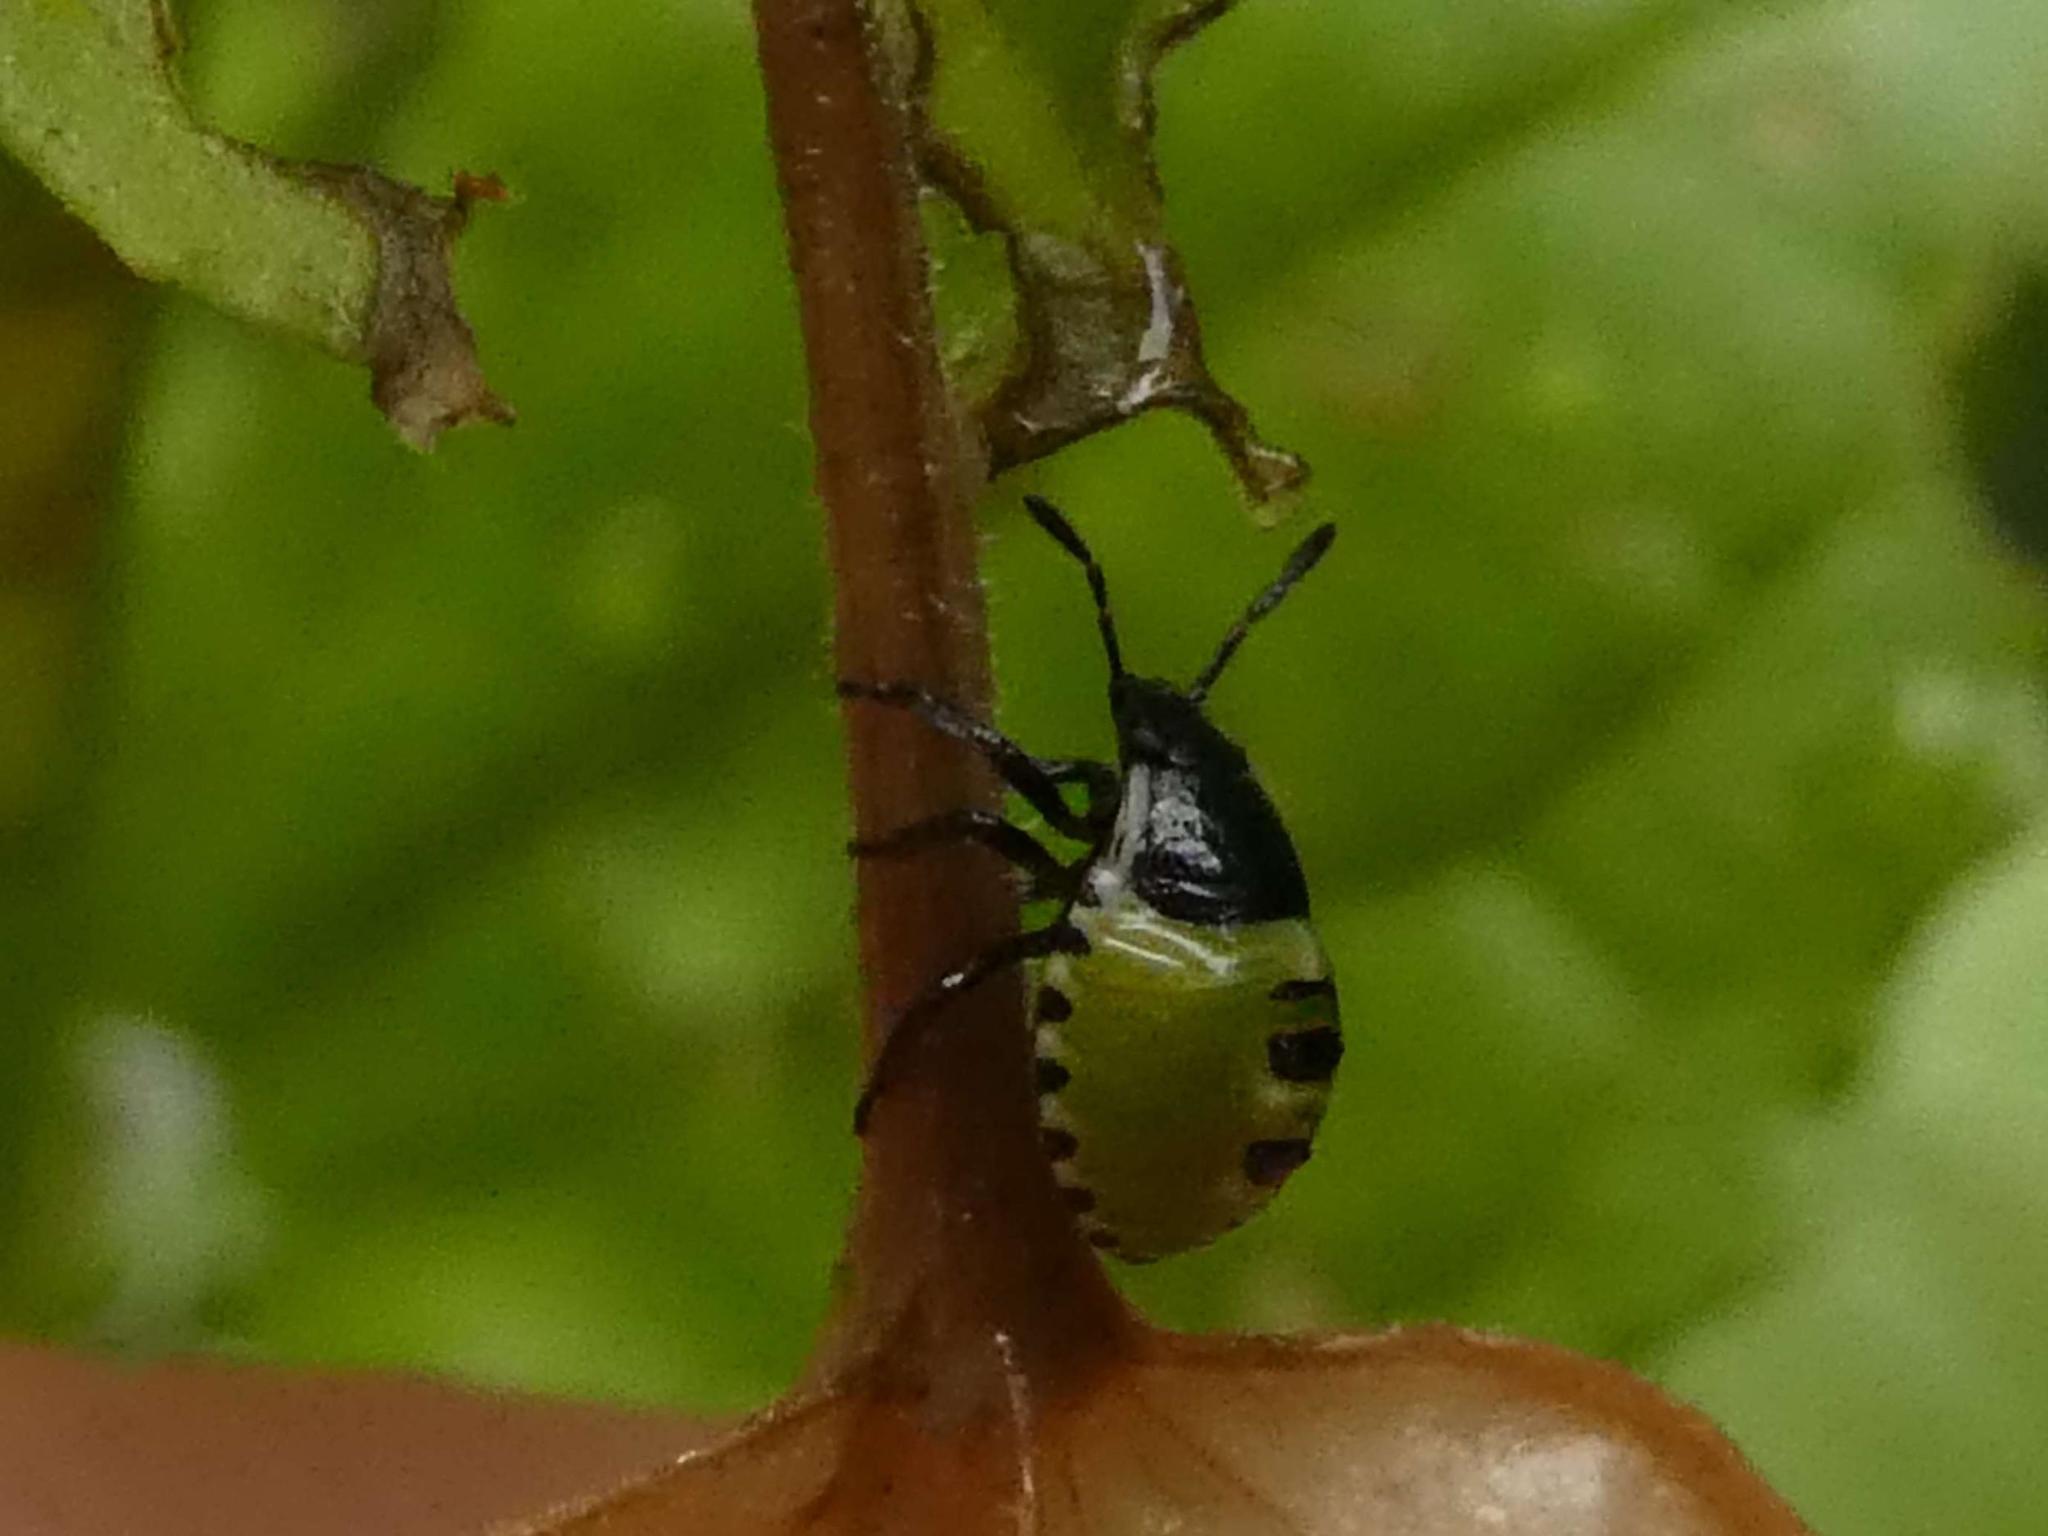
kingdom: Animalia
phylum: Arthropoda
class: Insecta
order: Hemiptera
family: Pentatomidae
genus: Palomena
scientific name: Palomena prasina
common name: Green shieldbug
